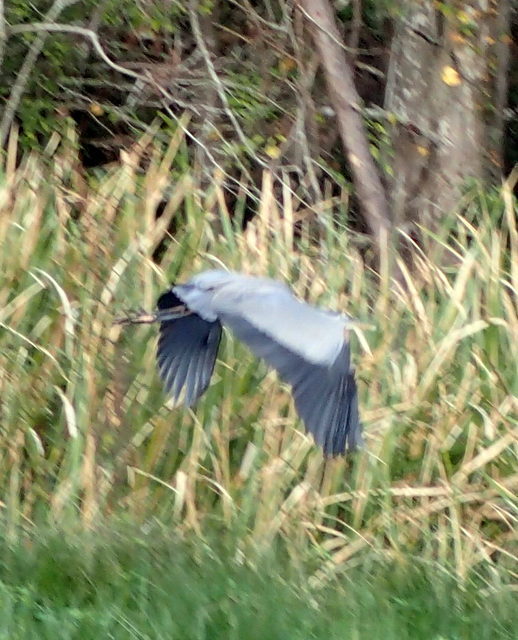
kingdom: Animalia
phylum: Chordata
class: Aves
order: Pelecaniformes
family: Ardeidae
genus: Ardea
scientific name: Ardea herodias
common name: Great blue heron
